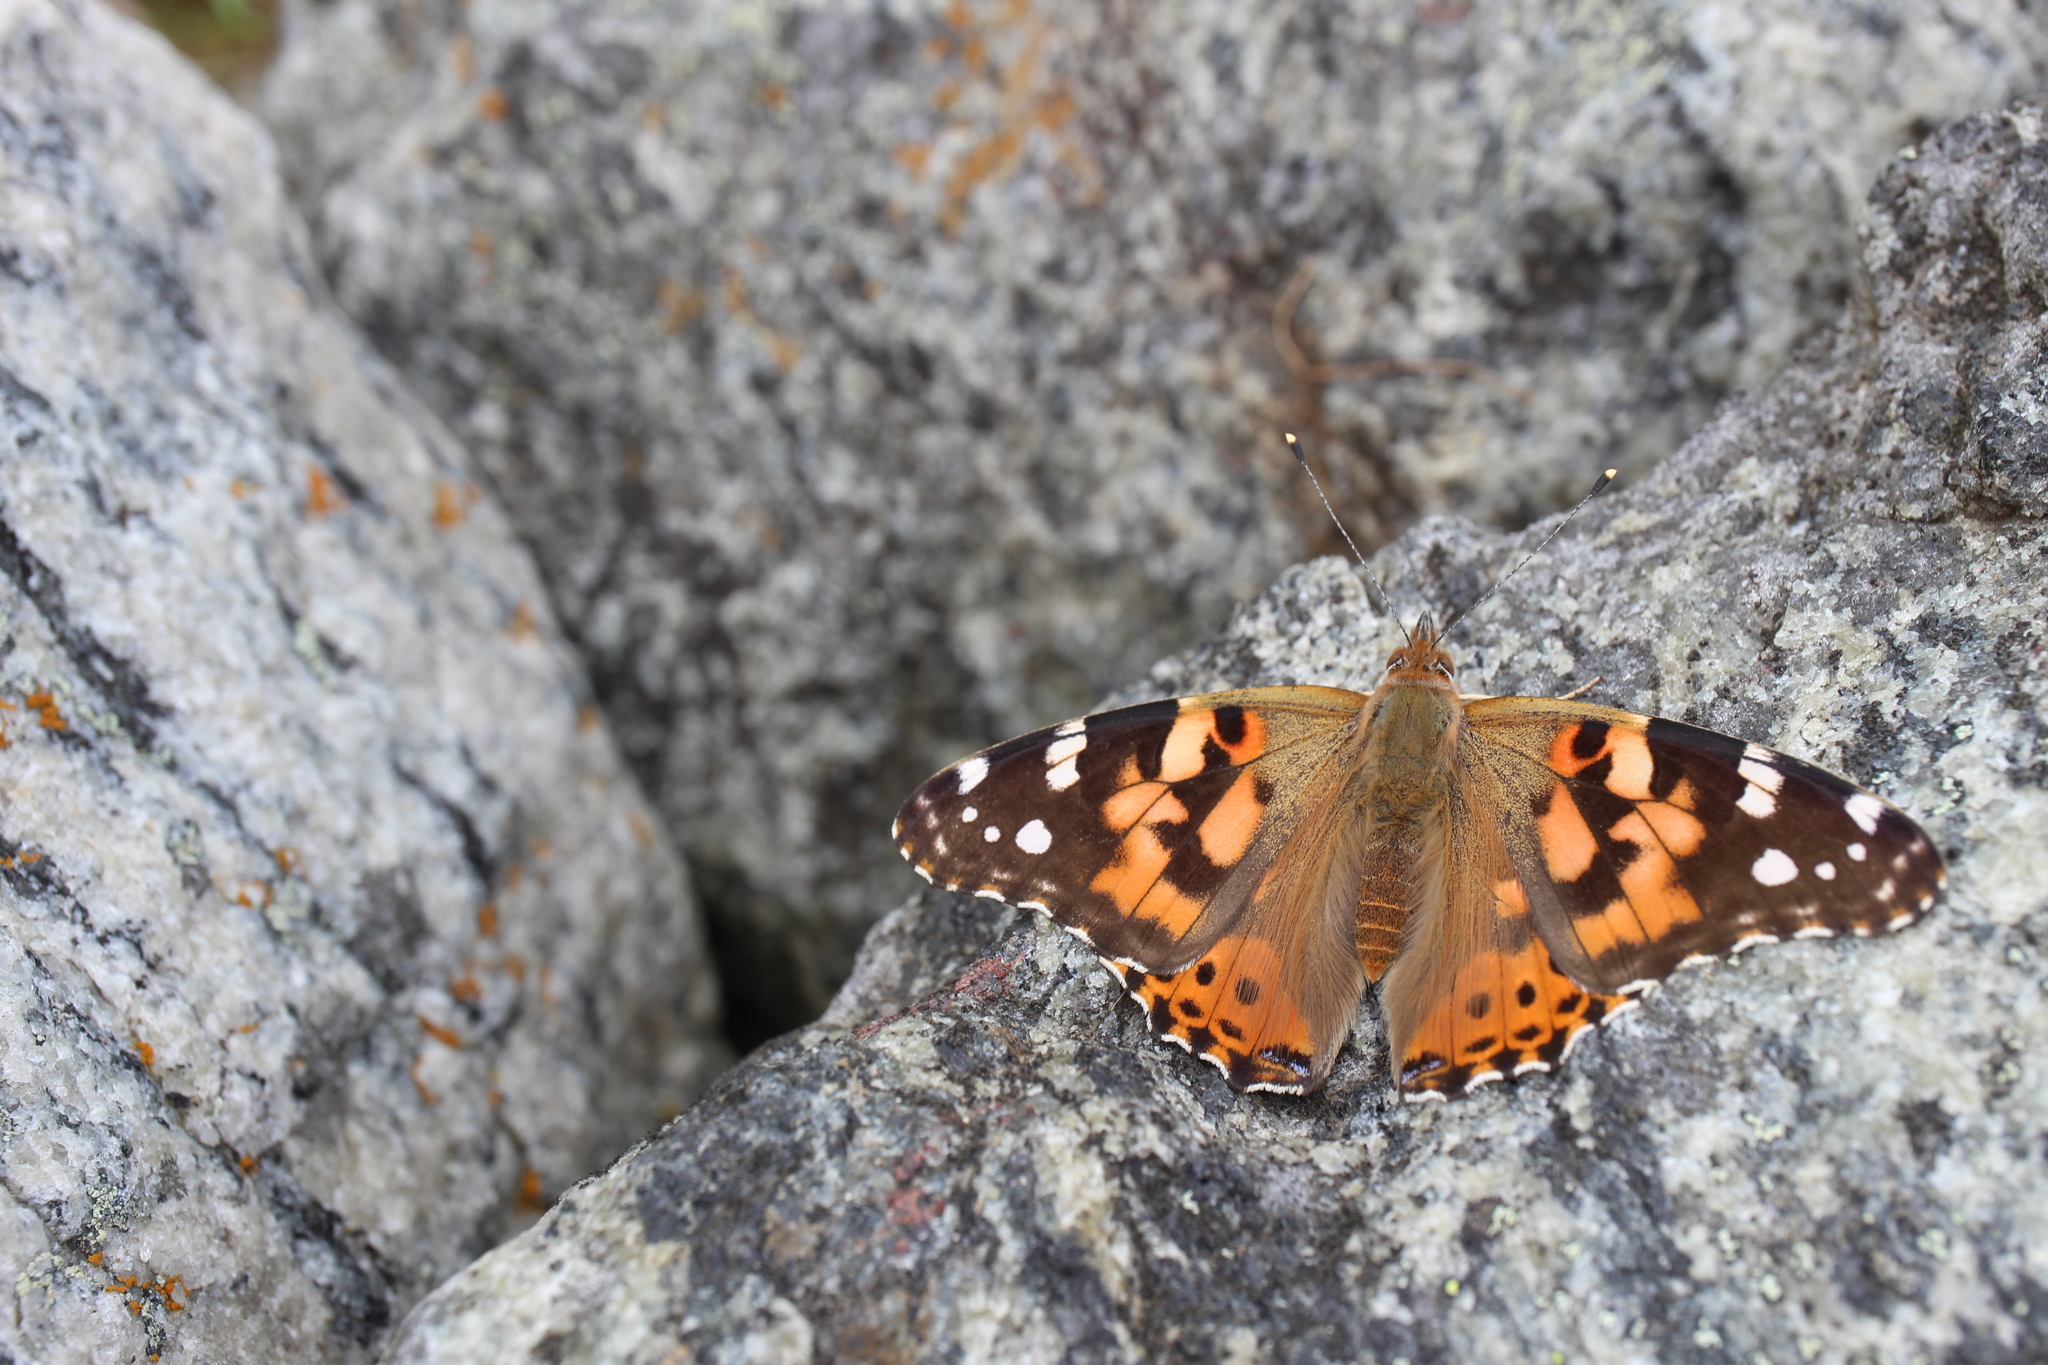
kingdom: Animalia
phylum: Arthropoda
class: Insecta
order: Lepidoptera
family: Nymphalidae
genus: Vanessa
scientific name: Vanessa cardui
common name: Painted lady
